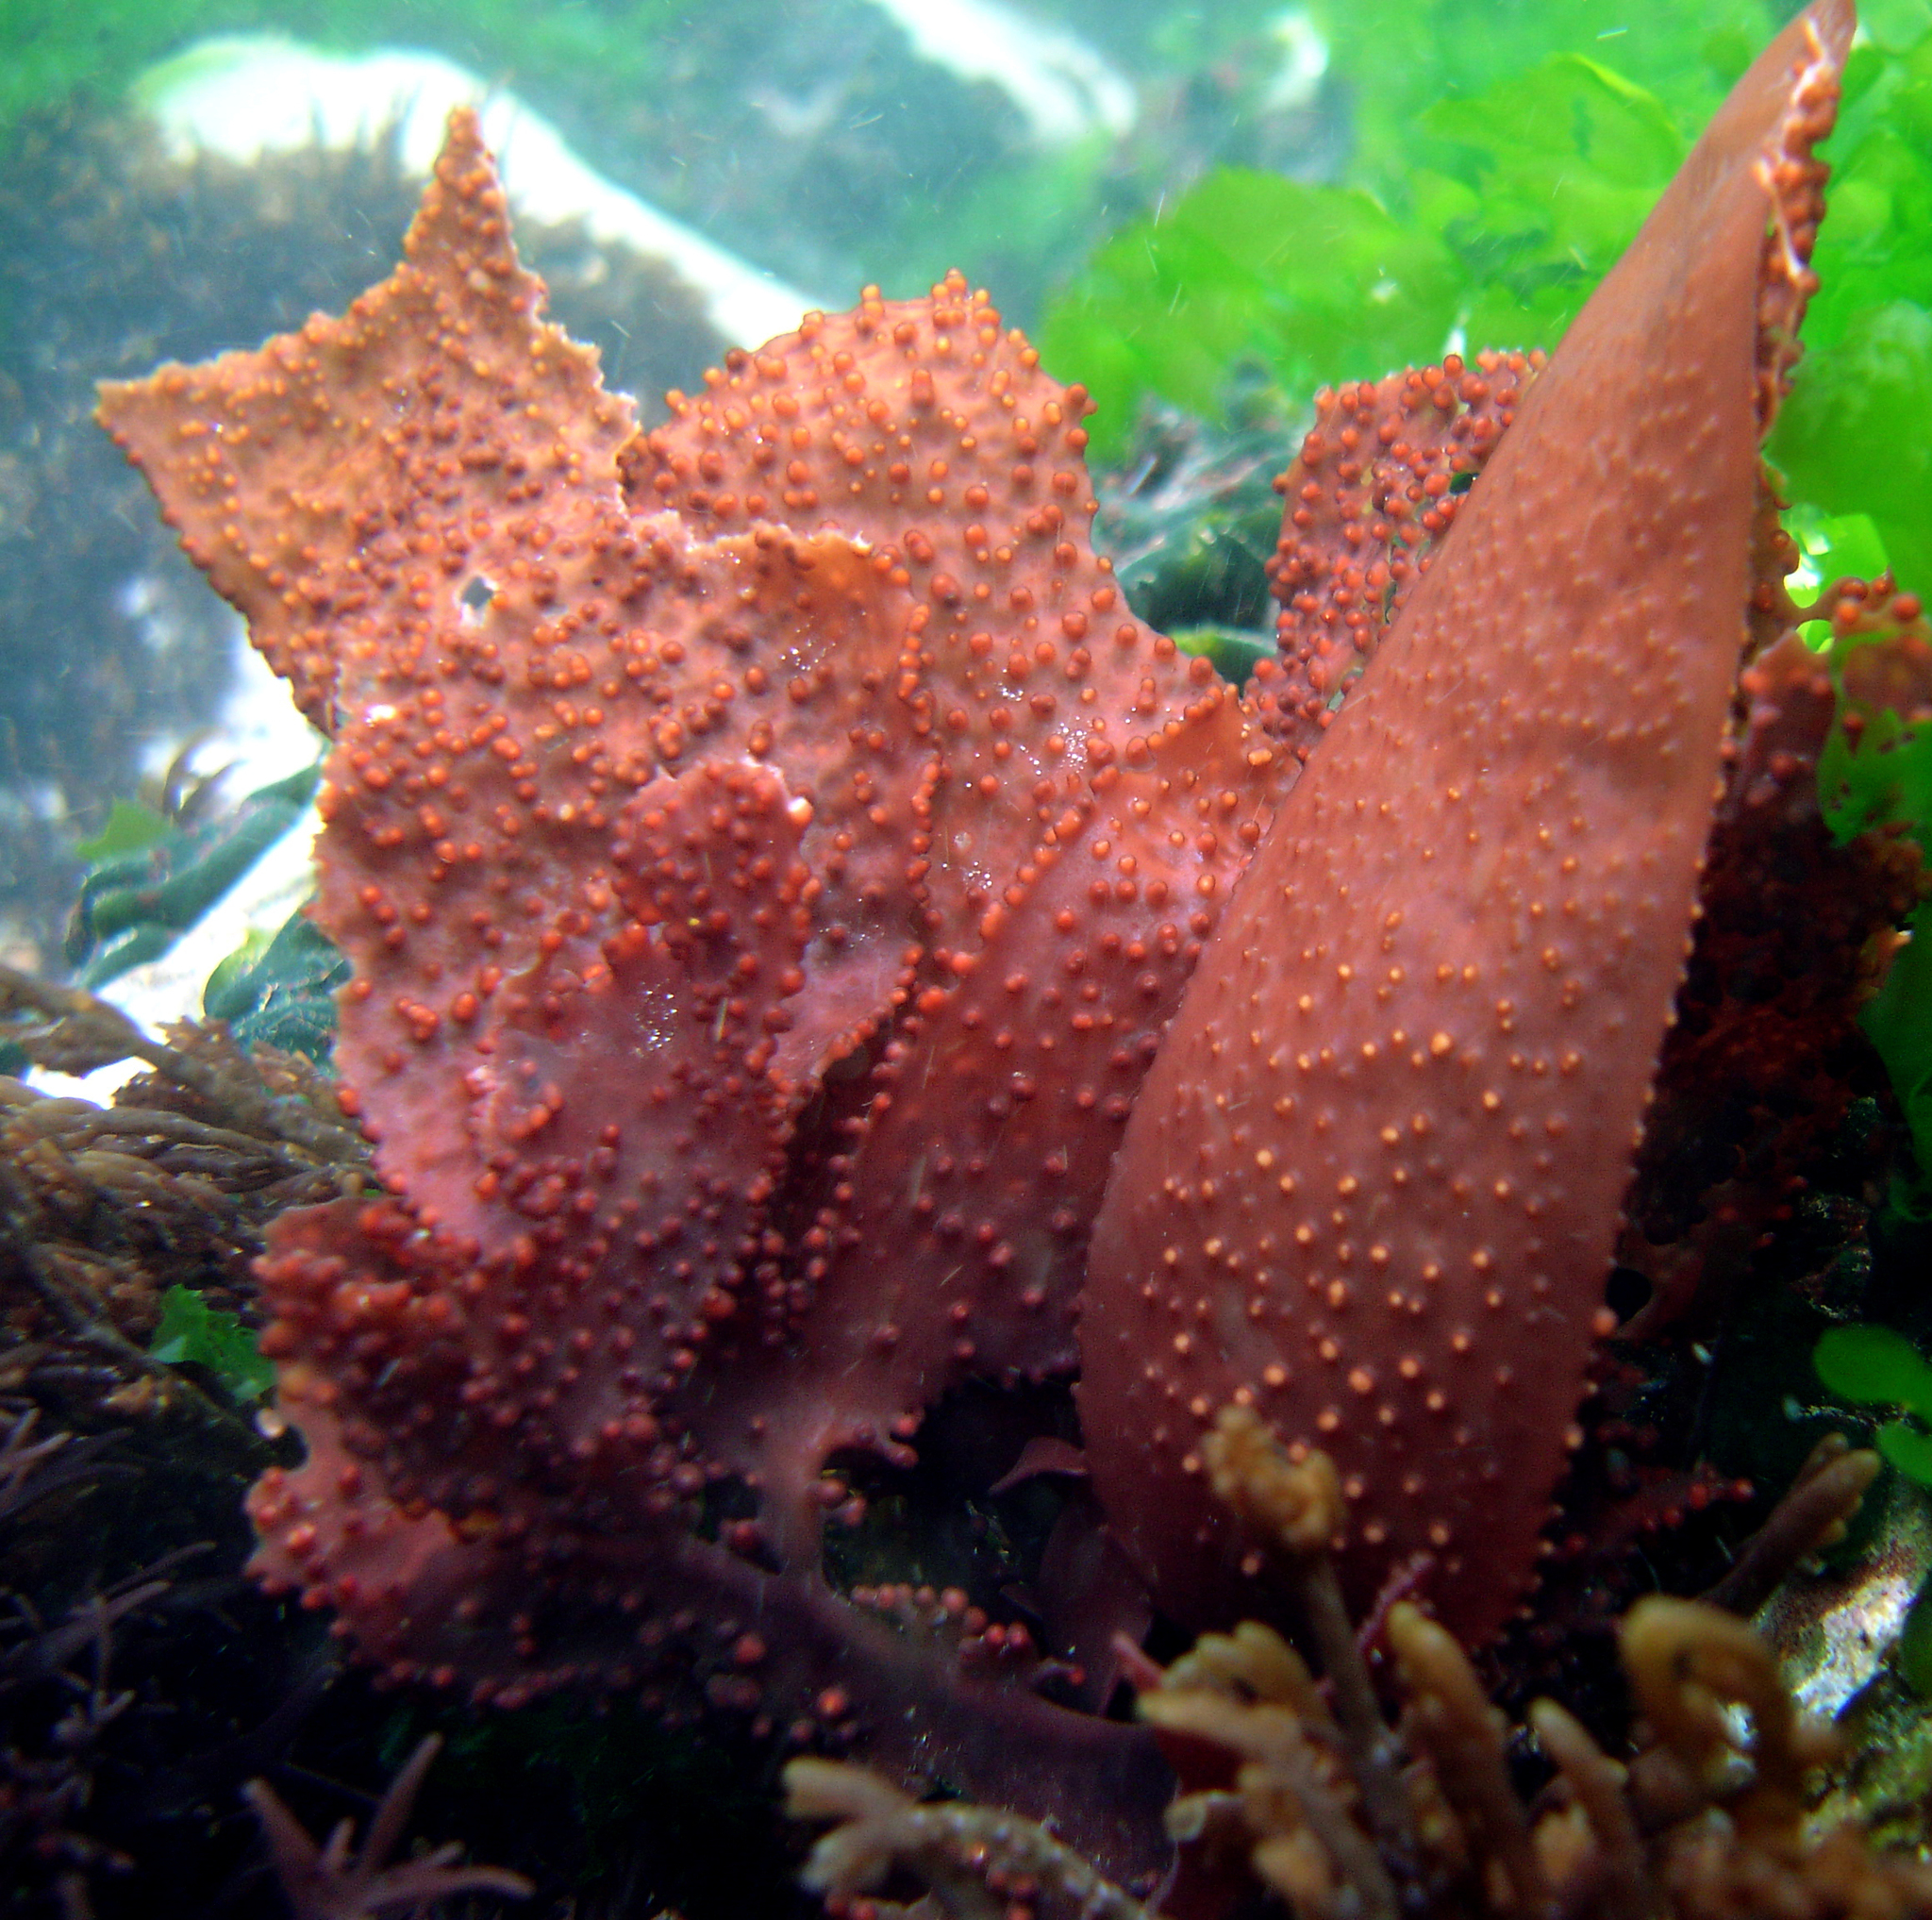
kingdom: Plantae
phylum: Rhodophyta
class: Florideophyceae
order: Gigartinales
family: Gigartinaceae
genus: Sarcothalia
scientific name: Sarcothalia
